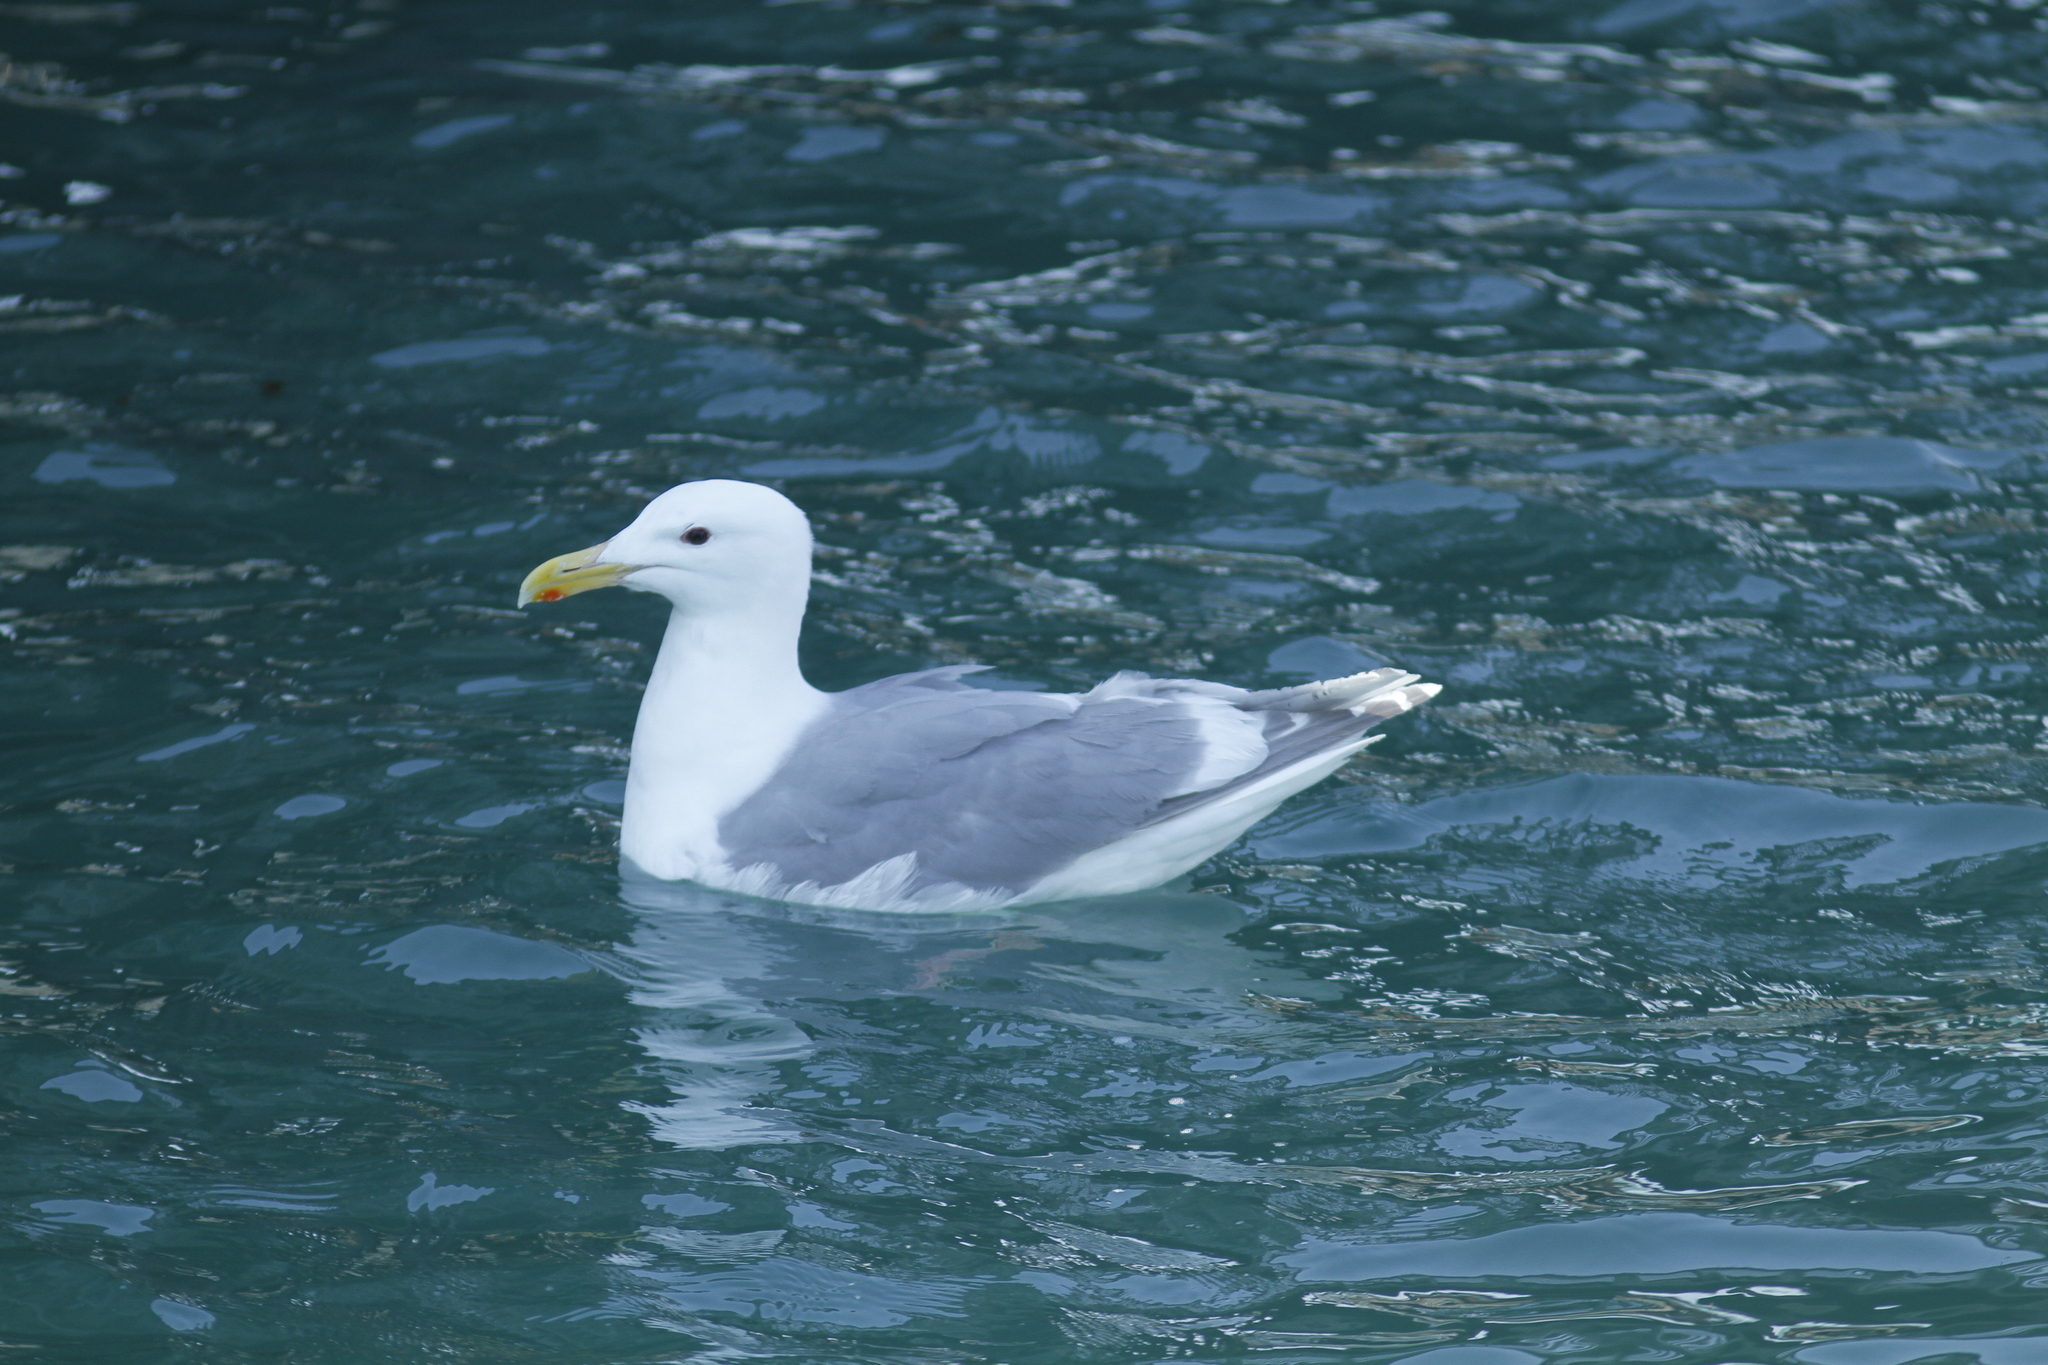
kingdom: Animalia
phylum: Chordata
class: Aves
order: Charadriiformes
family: Laridae
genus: Larus
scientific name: Larus glaucescens
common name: Glaucous-winged gull
